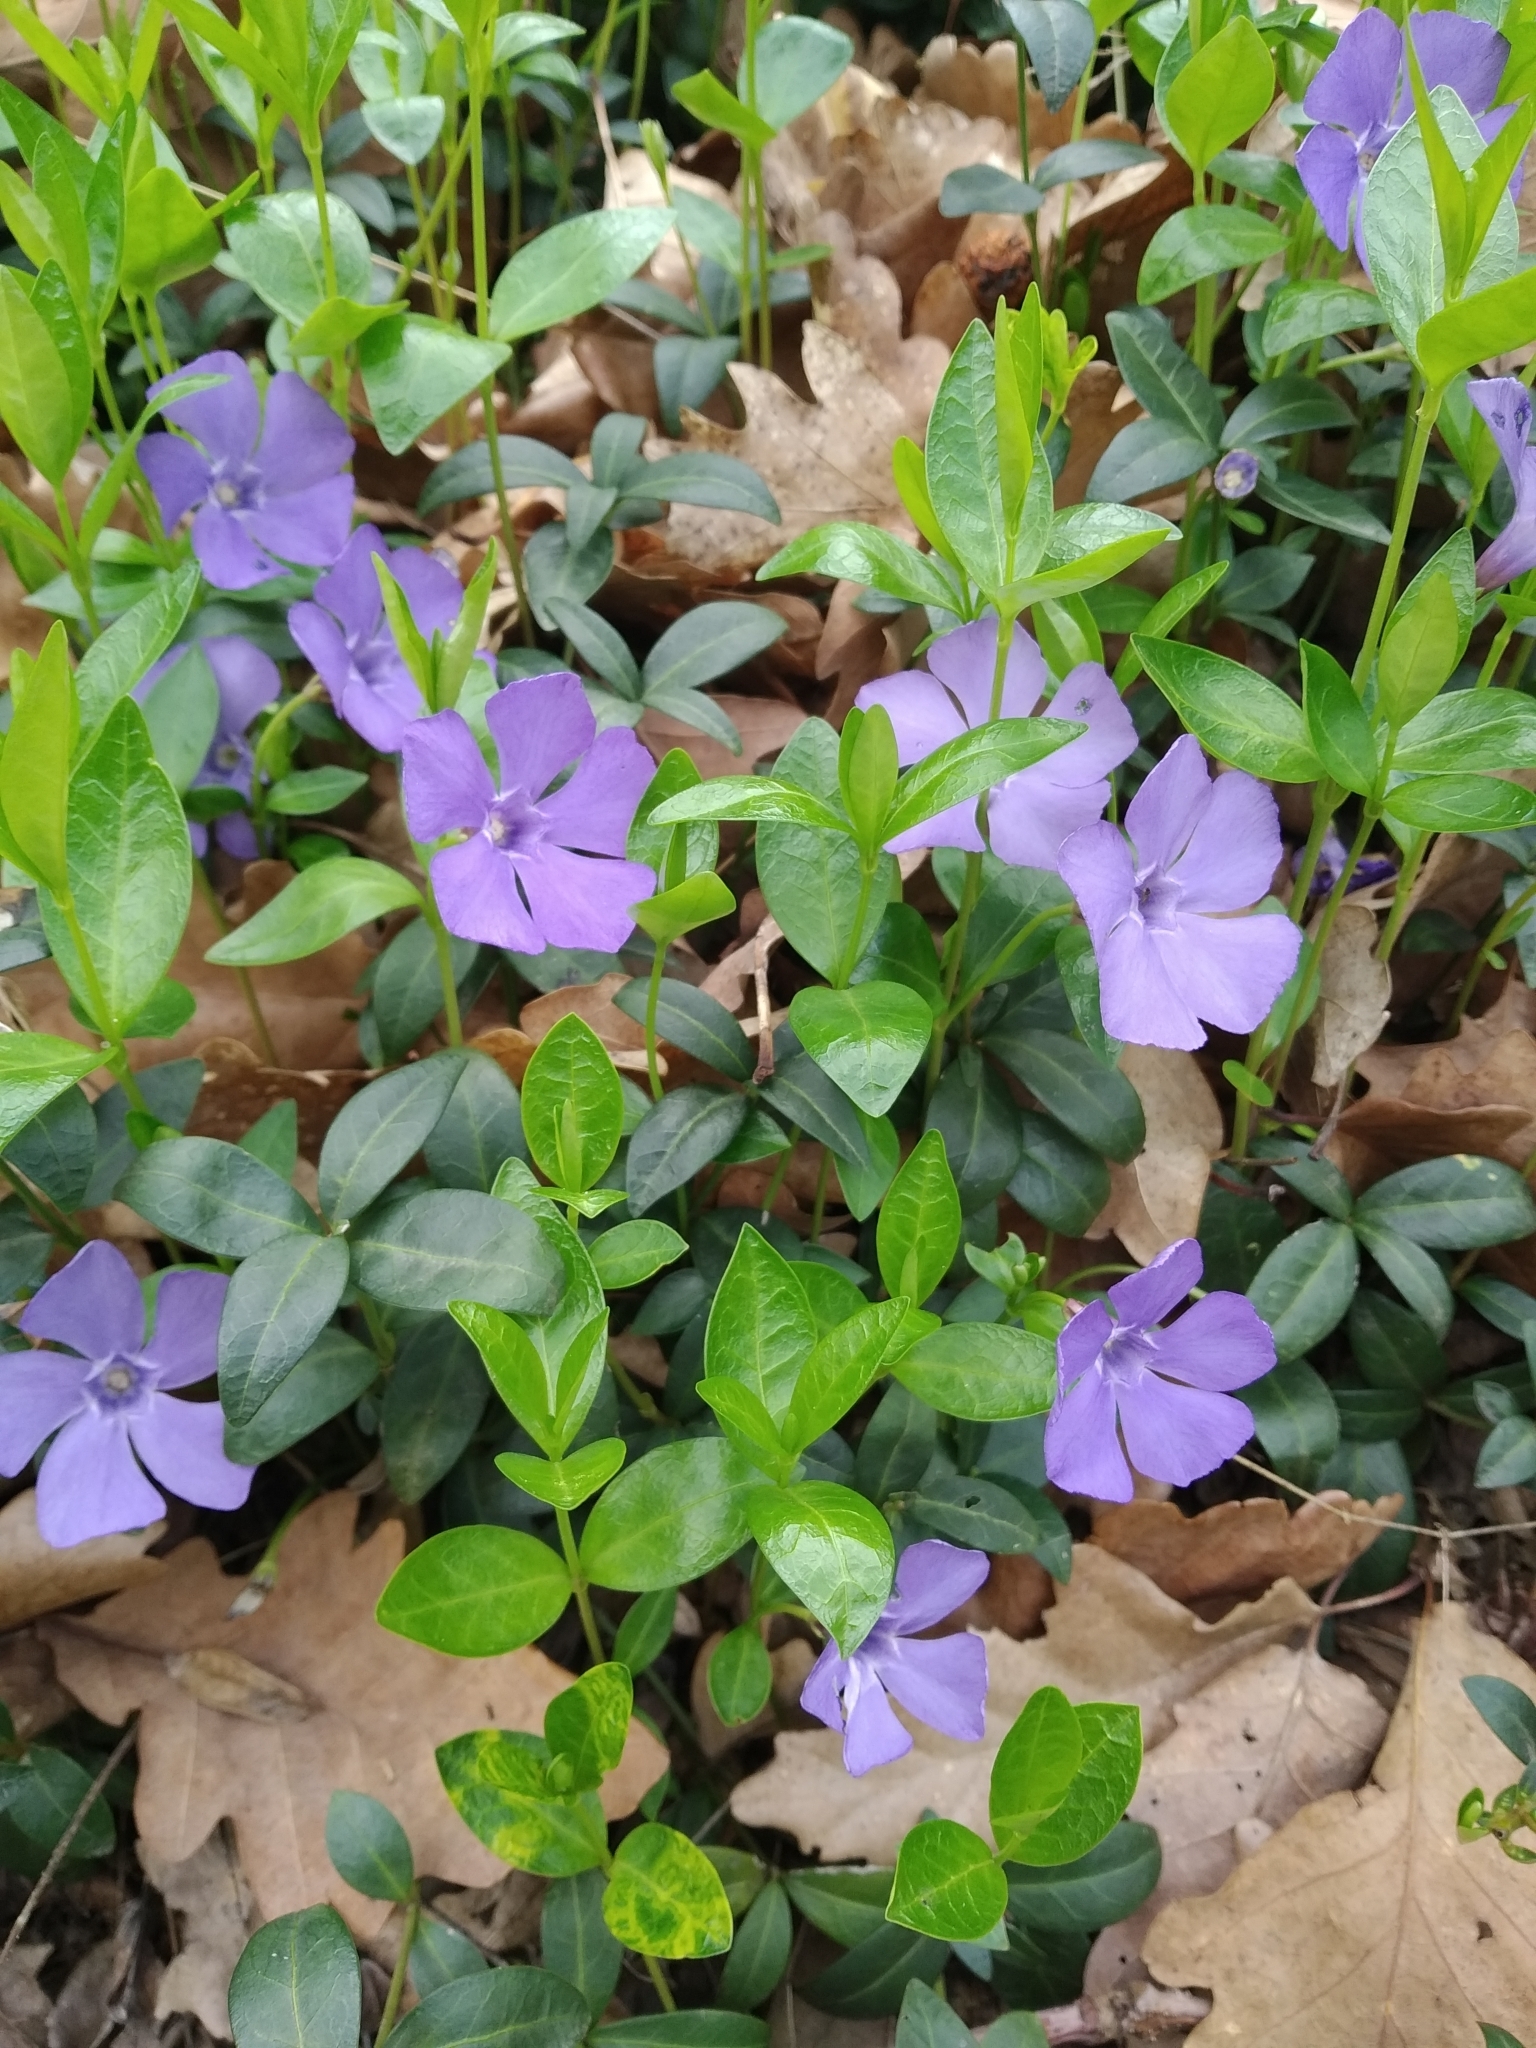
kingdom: Plantae
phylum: Tracheophyta
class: Magnoliopsida
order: Gentianales
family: Apocynaceae
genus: Vinca
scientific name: Vinca minor
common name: Lesser periwinkle
